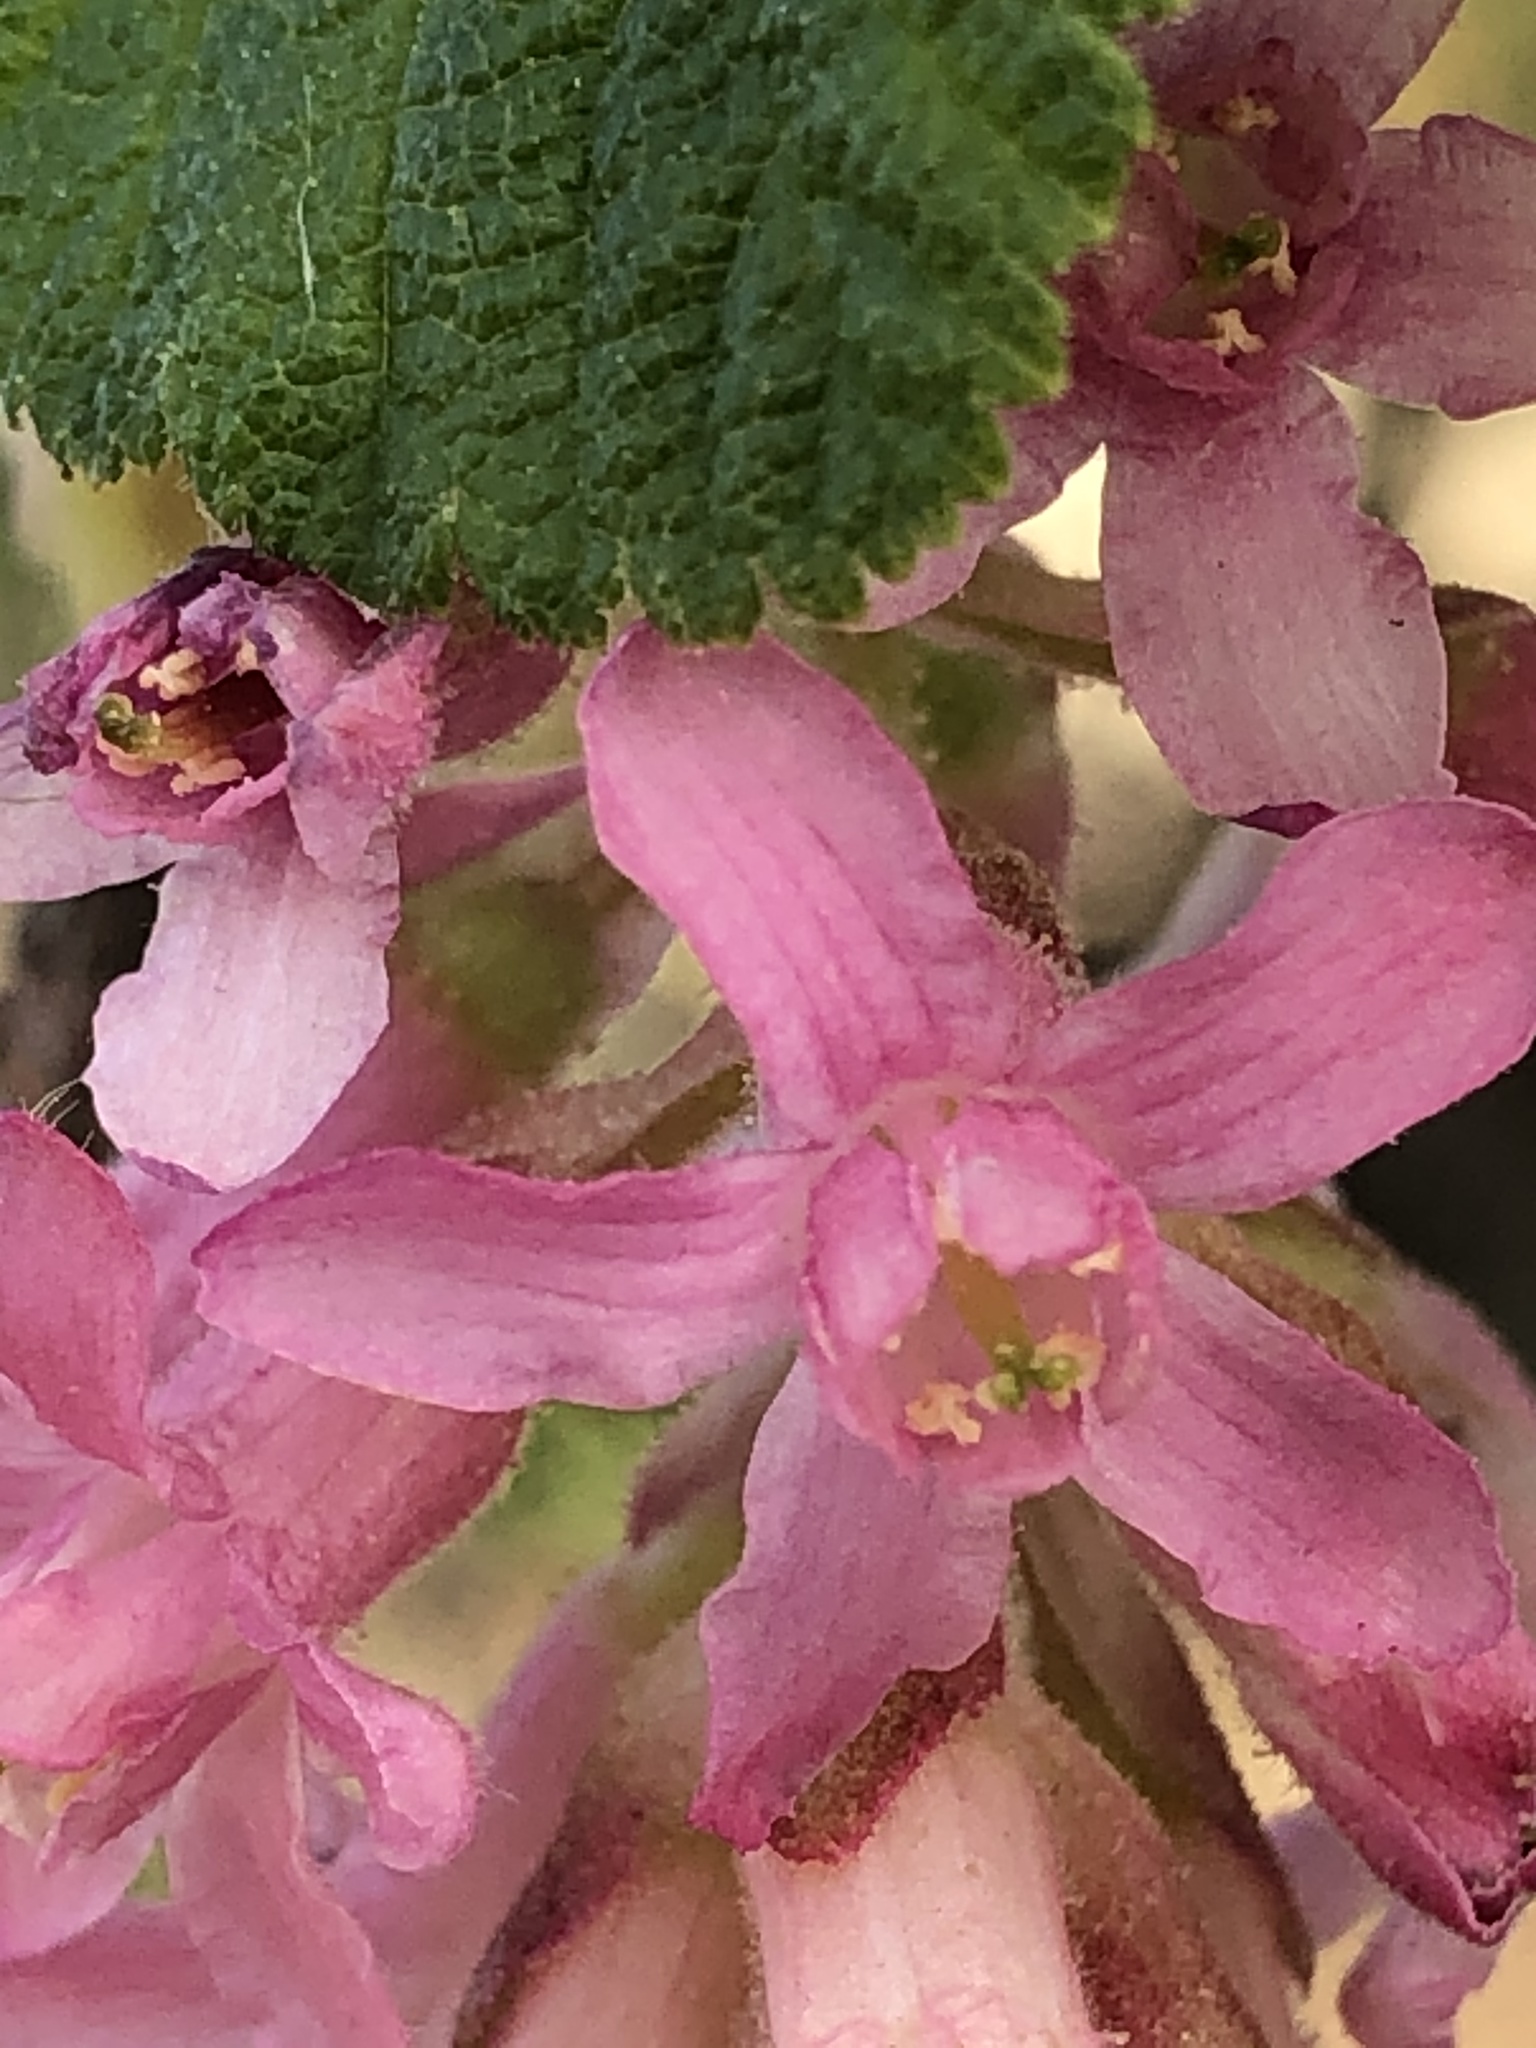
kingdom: Plantae
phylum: Tracheophyta
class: Magnoliopsida
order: Saxifragales
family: Grossulariaceae
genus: Ribes
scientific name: Ribes sanguineum
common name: Flowering currant
